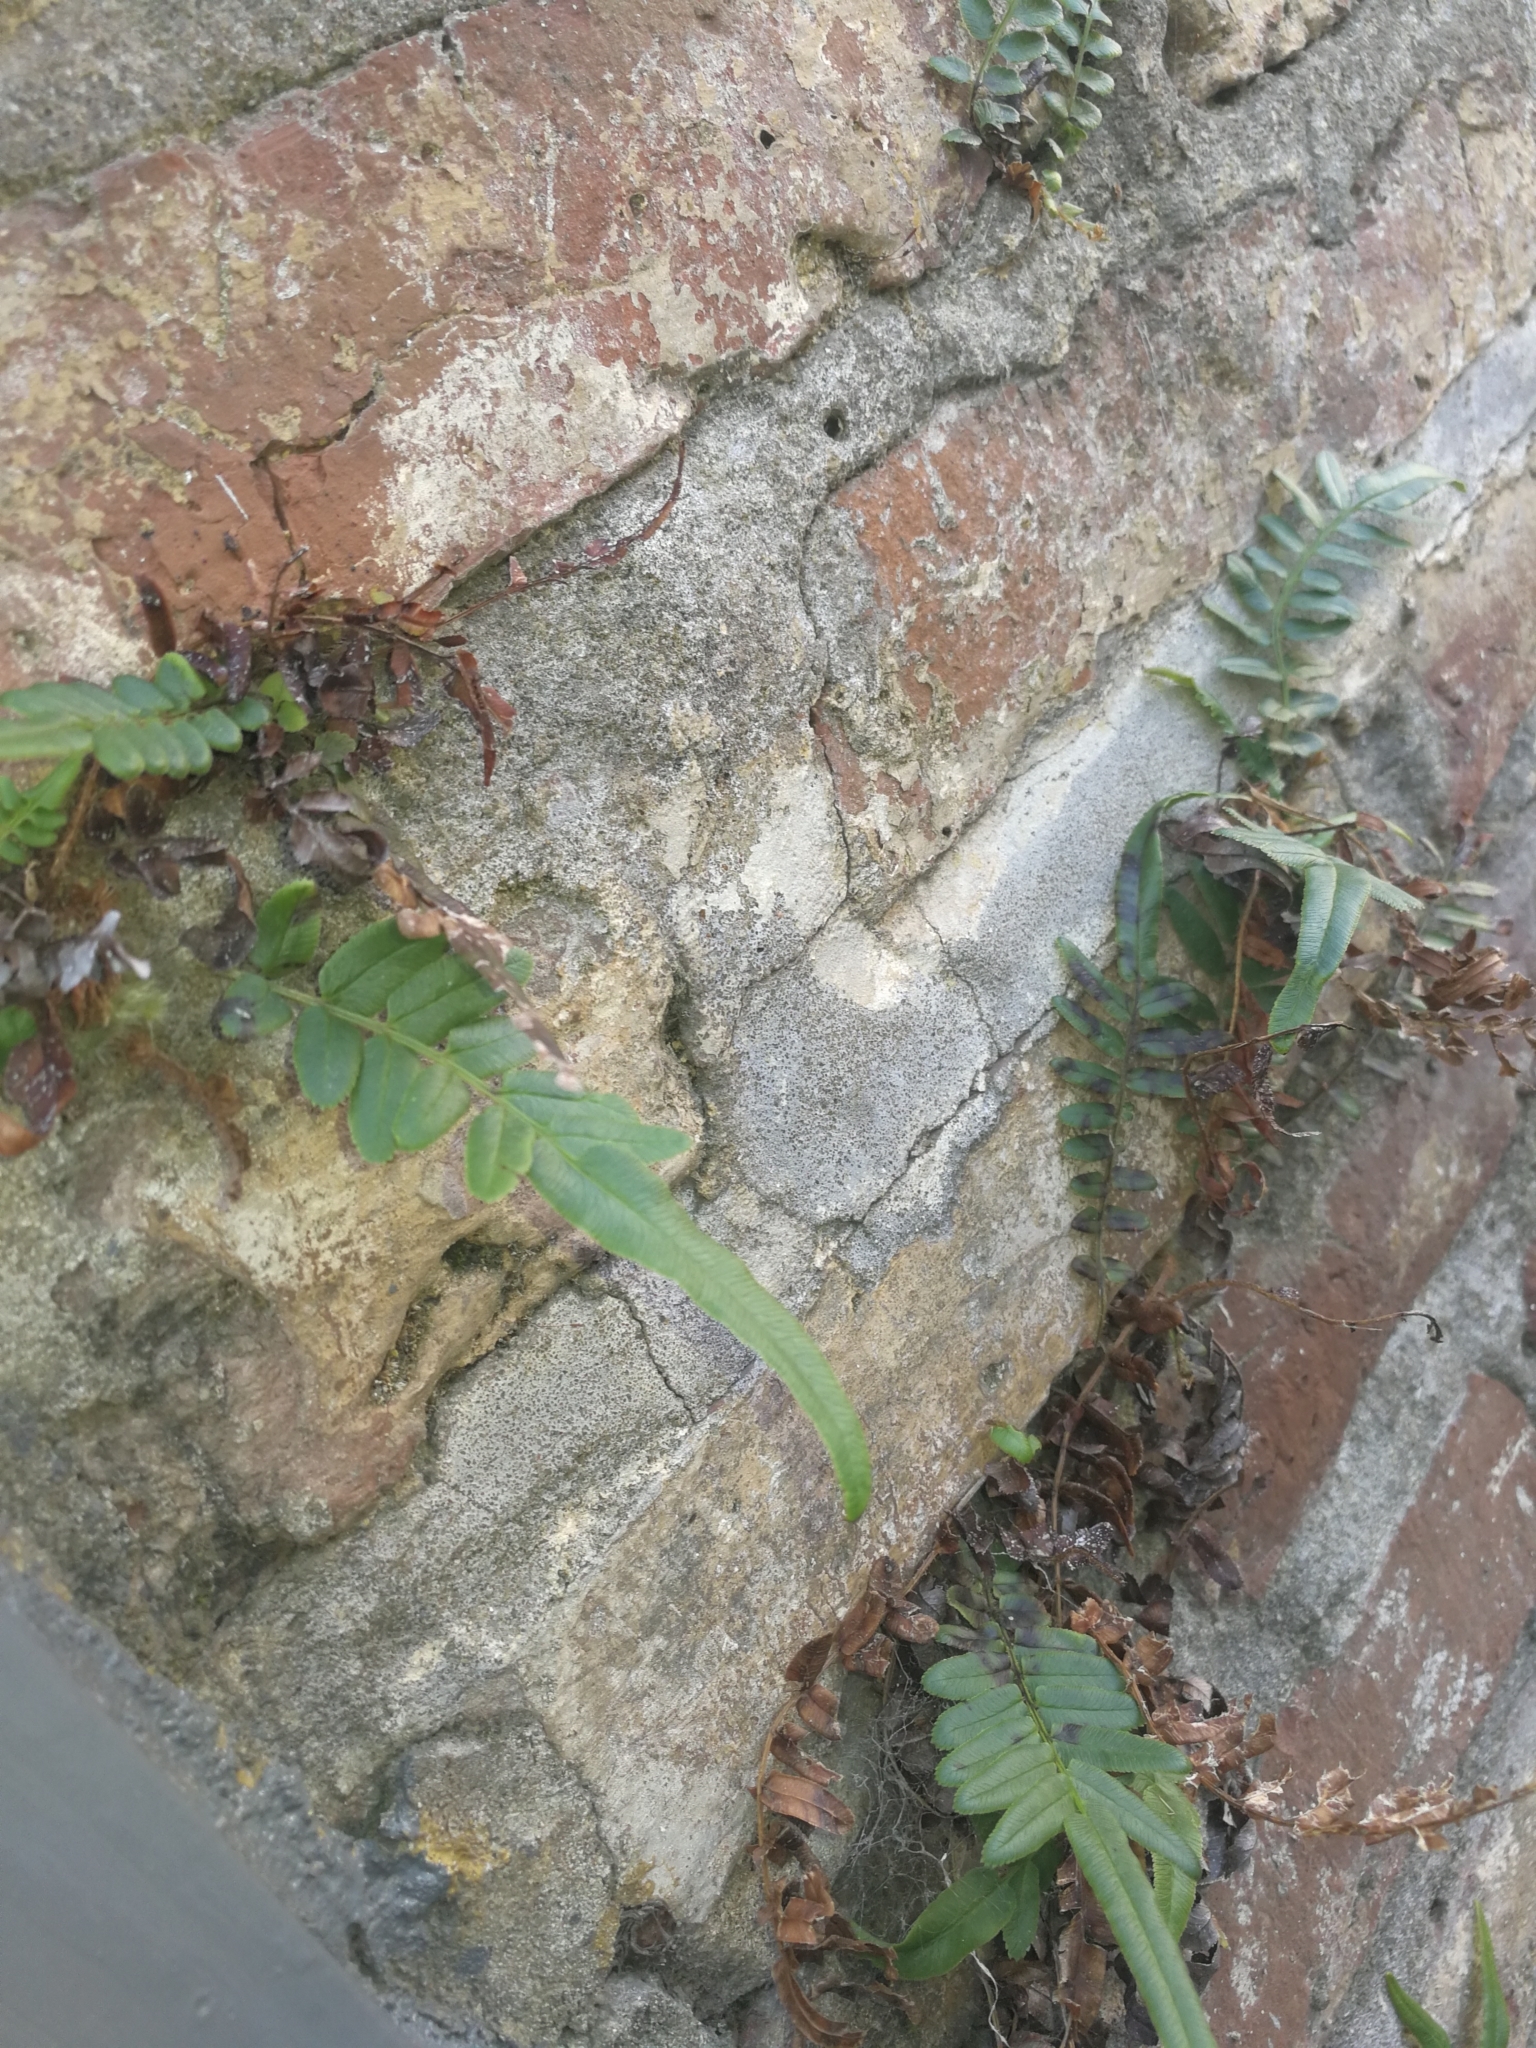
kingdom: Plantae
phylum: Tracheophyta
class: Polypodiopsida
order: Polypodiales
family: Pteridaceae
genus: Pteris
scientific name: Pteris vittata
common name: Ladder brake
